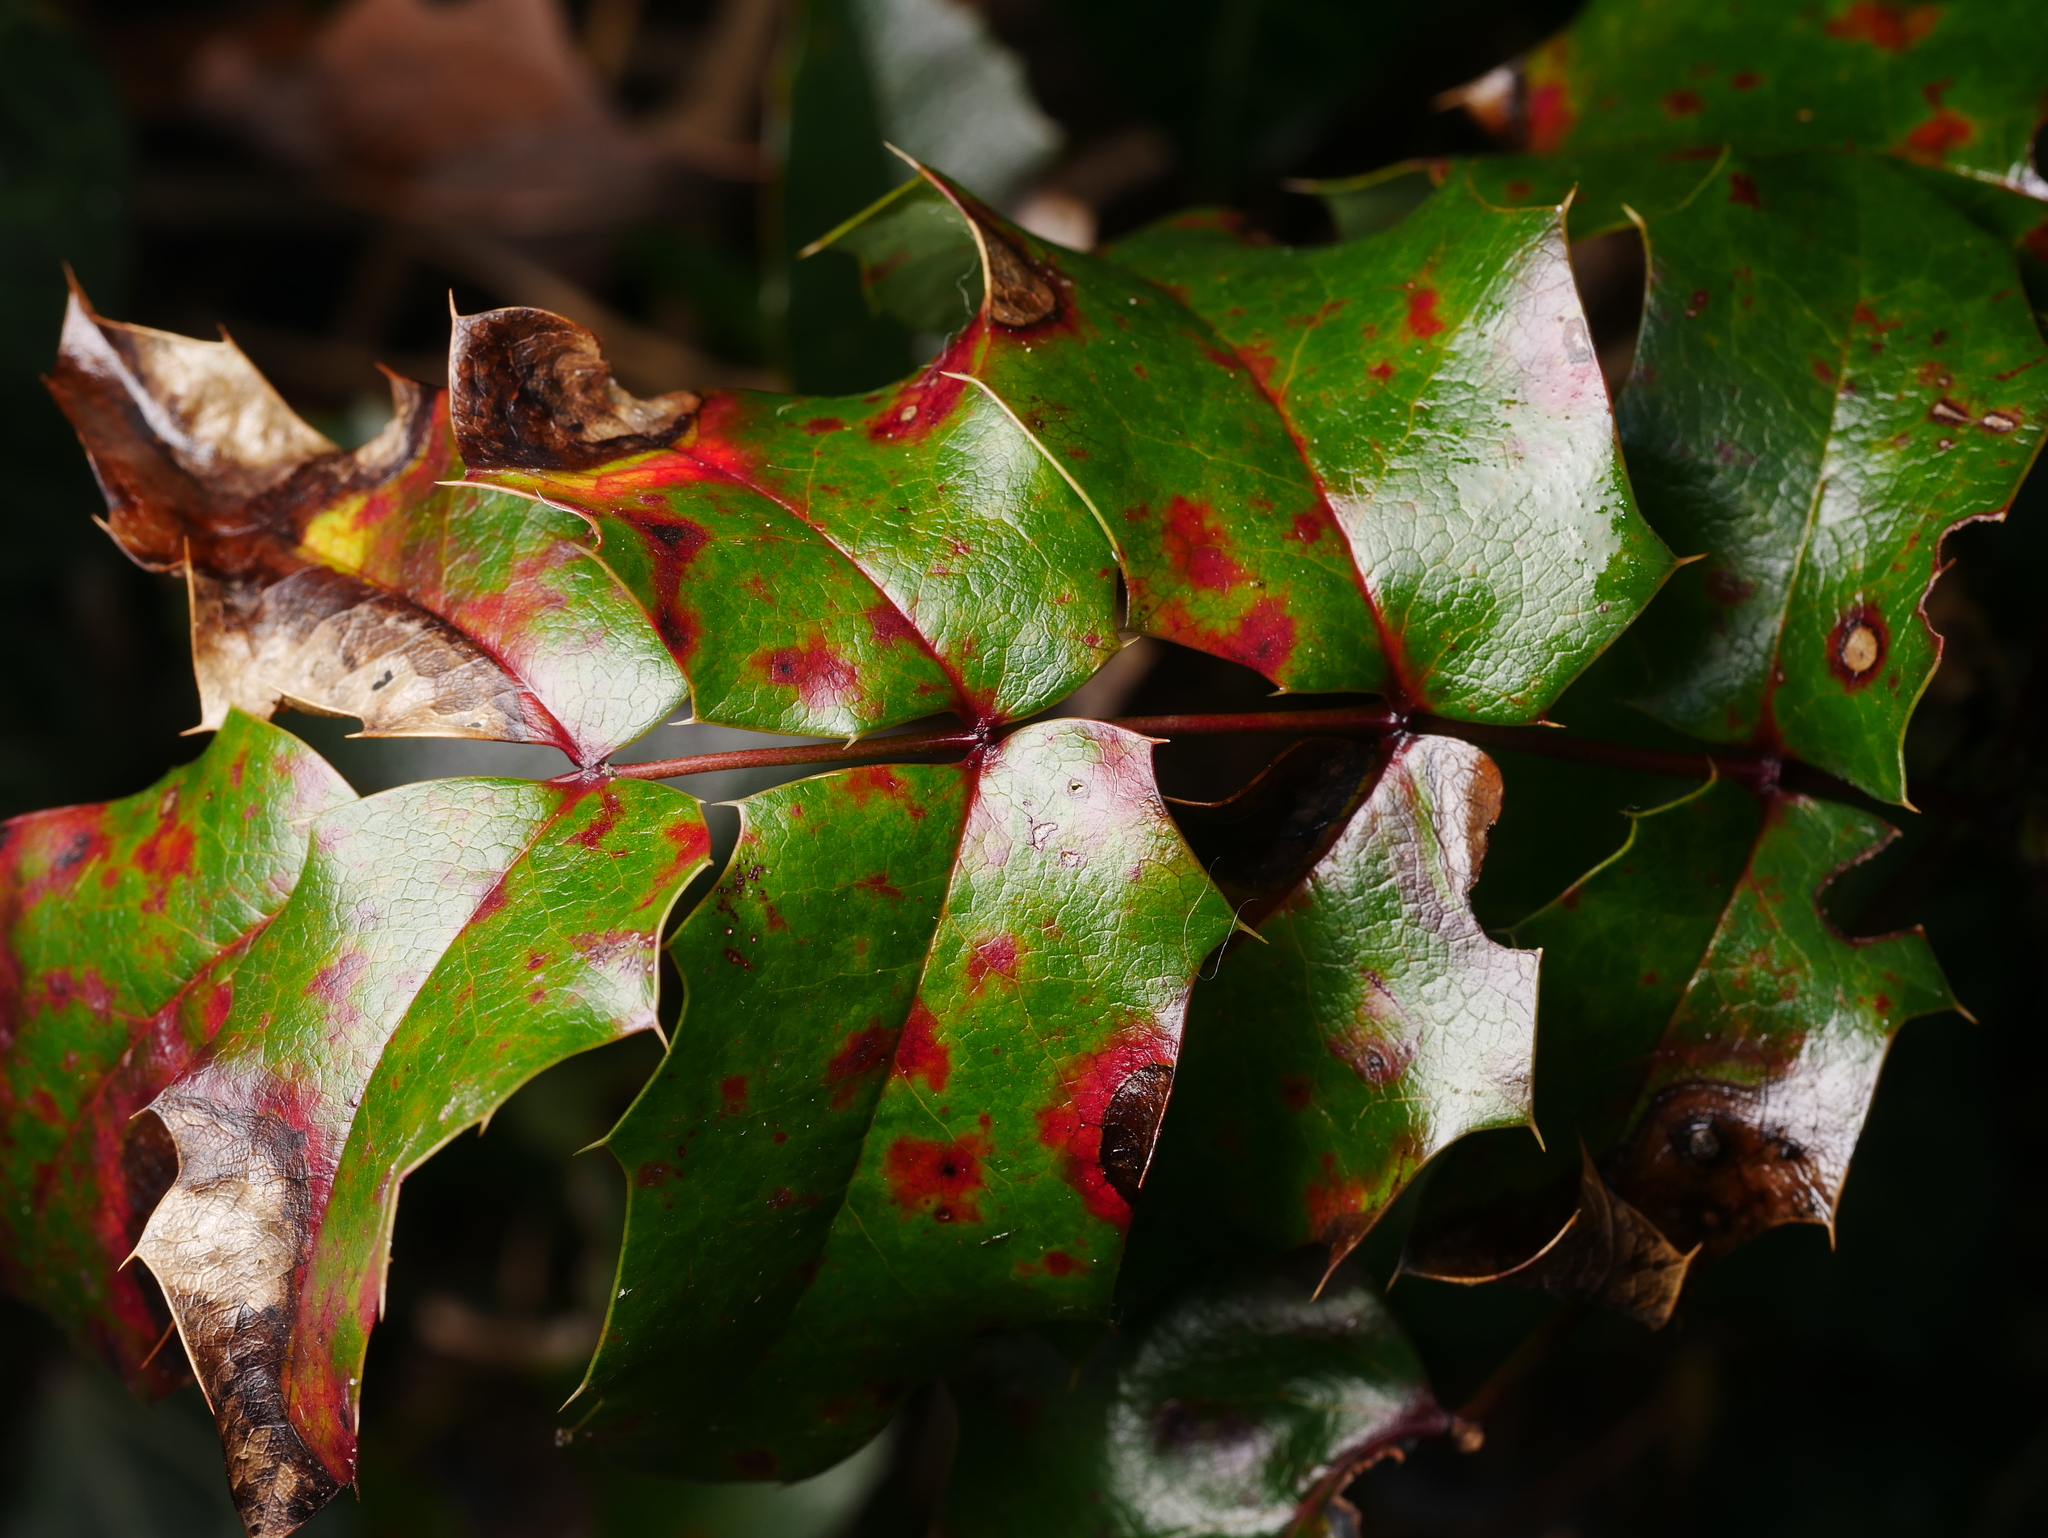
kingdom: Plantae
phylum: Tracheophyta
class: Magnoliopsida
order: Ranunculales
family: Berberidaceae
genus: Mahonia
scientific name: Mahonia aquifolium
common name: Oregon-grape
